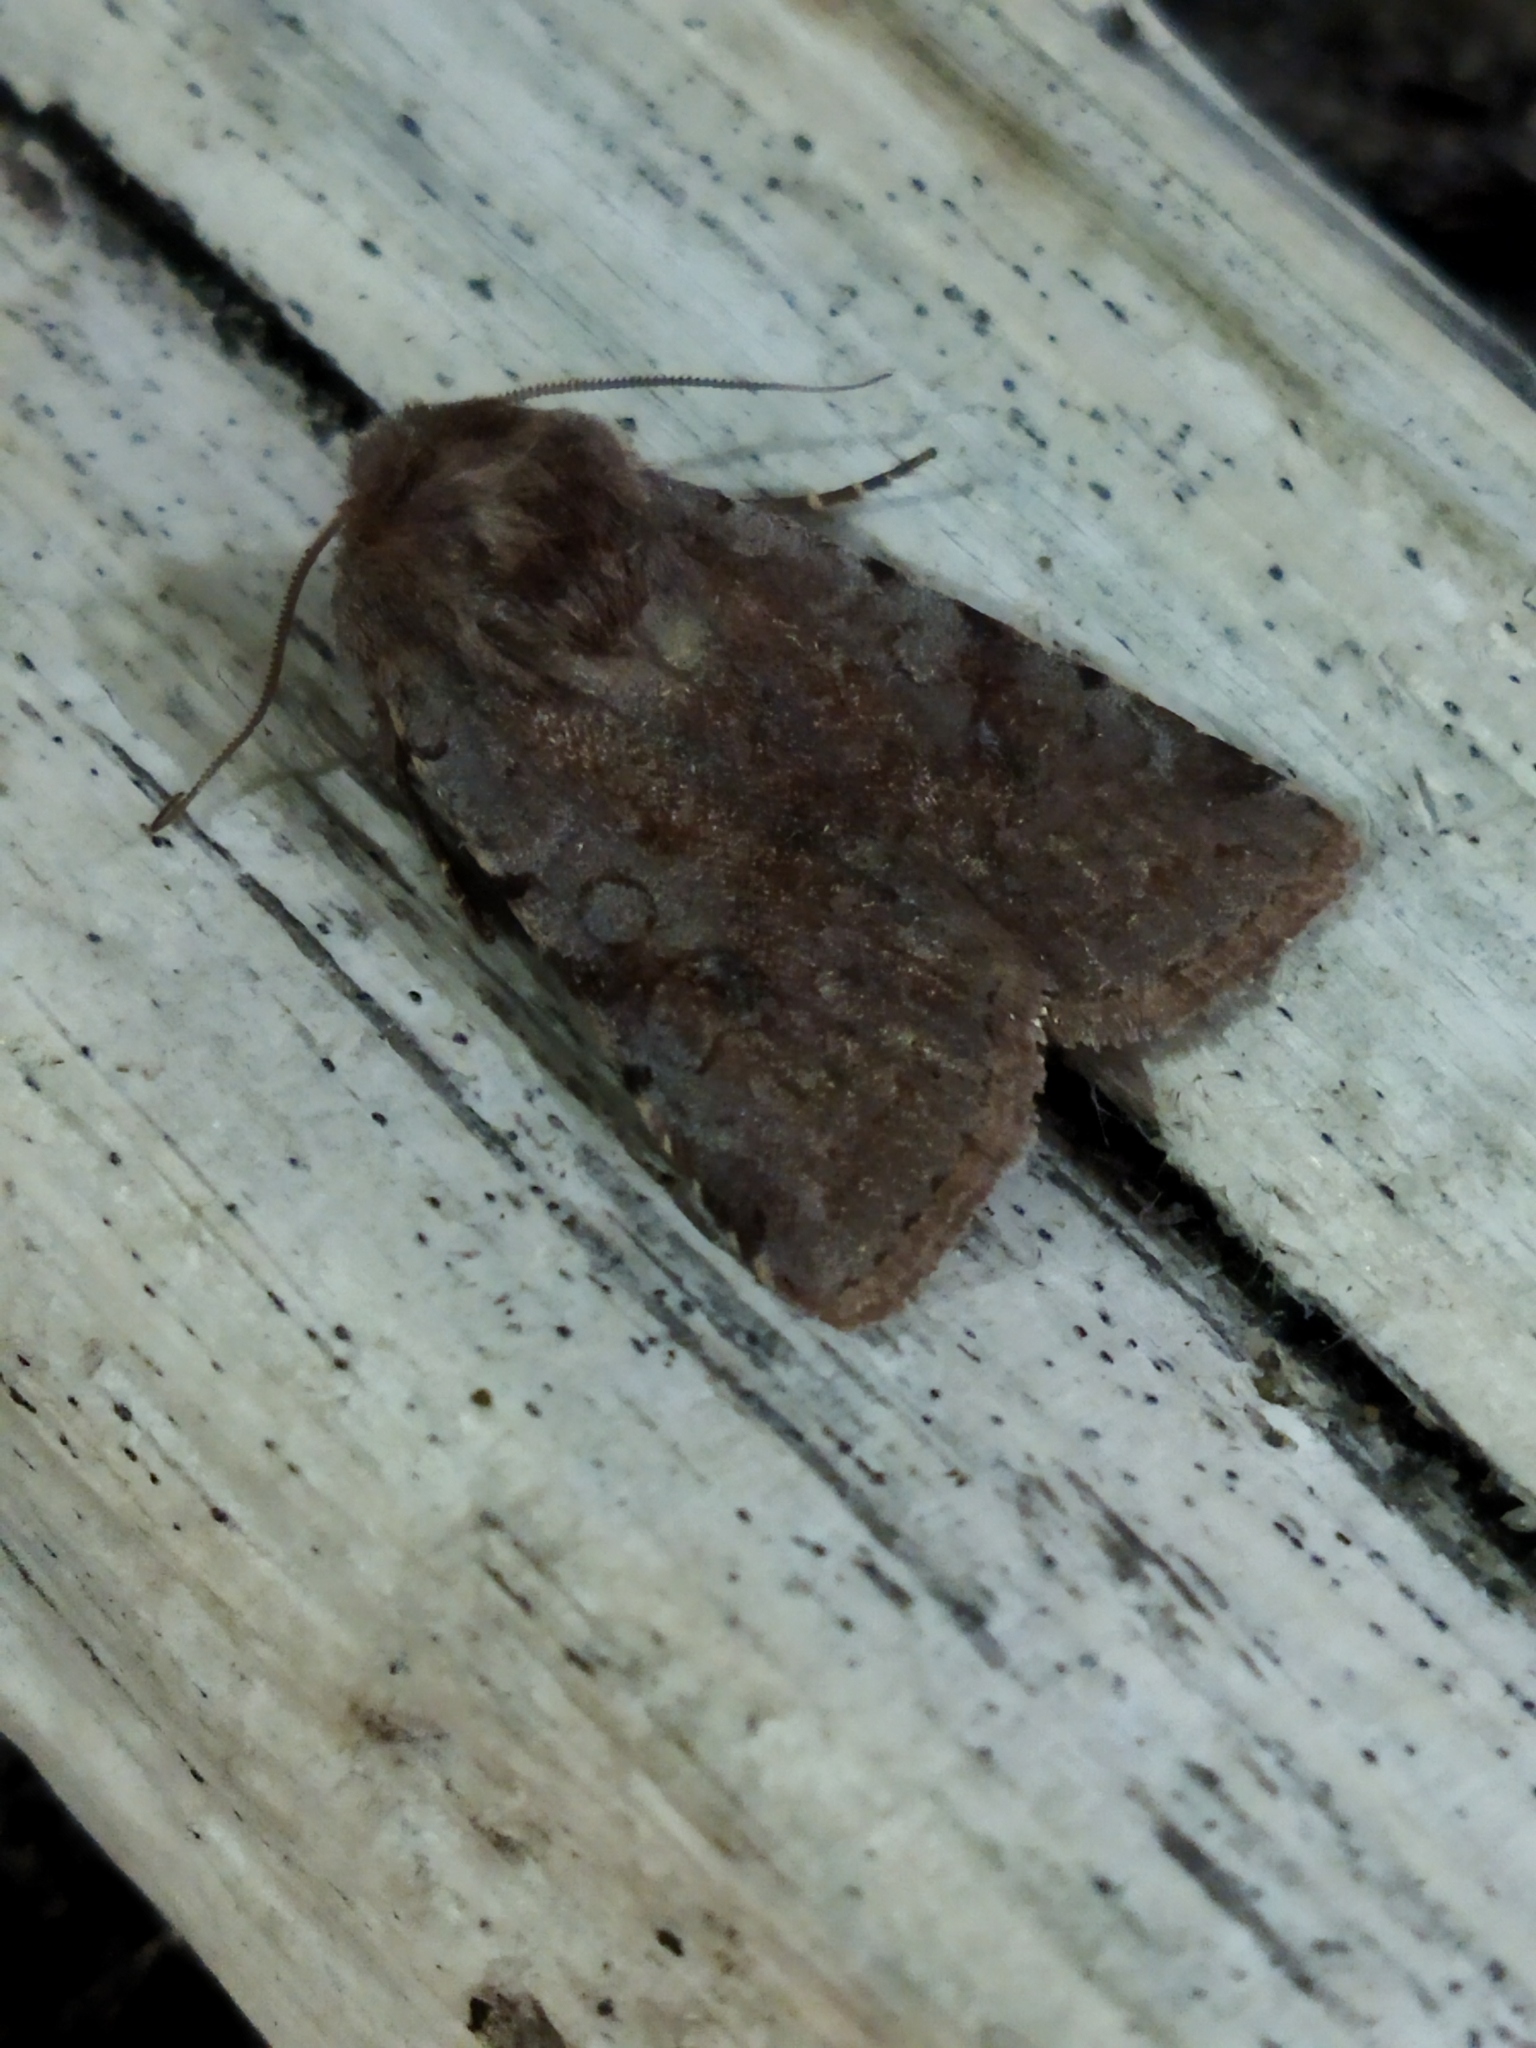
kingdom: Animalia
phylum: Arthropoda
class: Insecta
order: Lepidoptera
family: Noctuidae
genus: Cerastis
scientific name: Cerastis rubricosa
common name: Red chestnut
